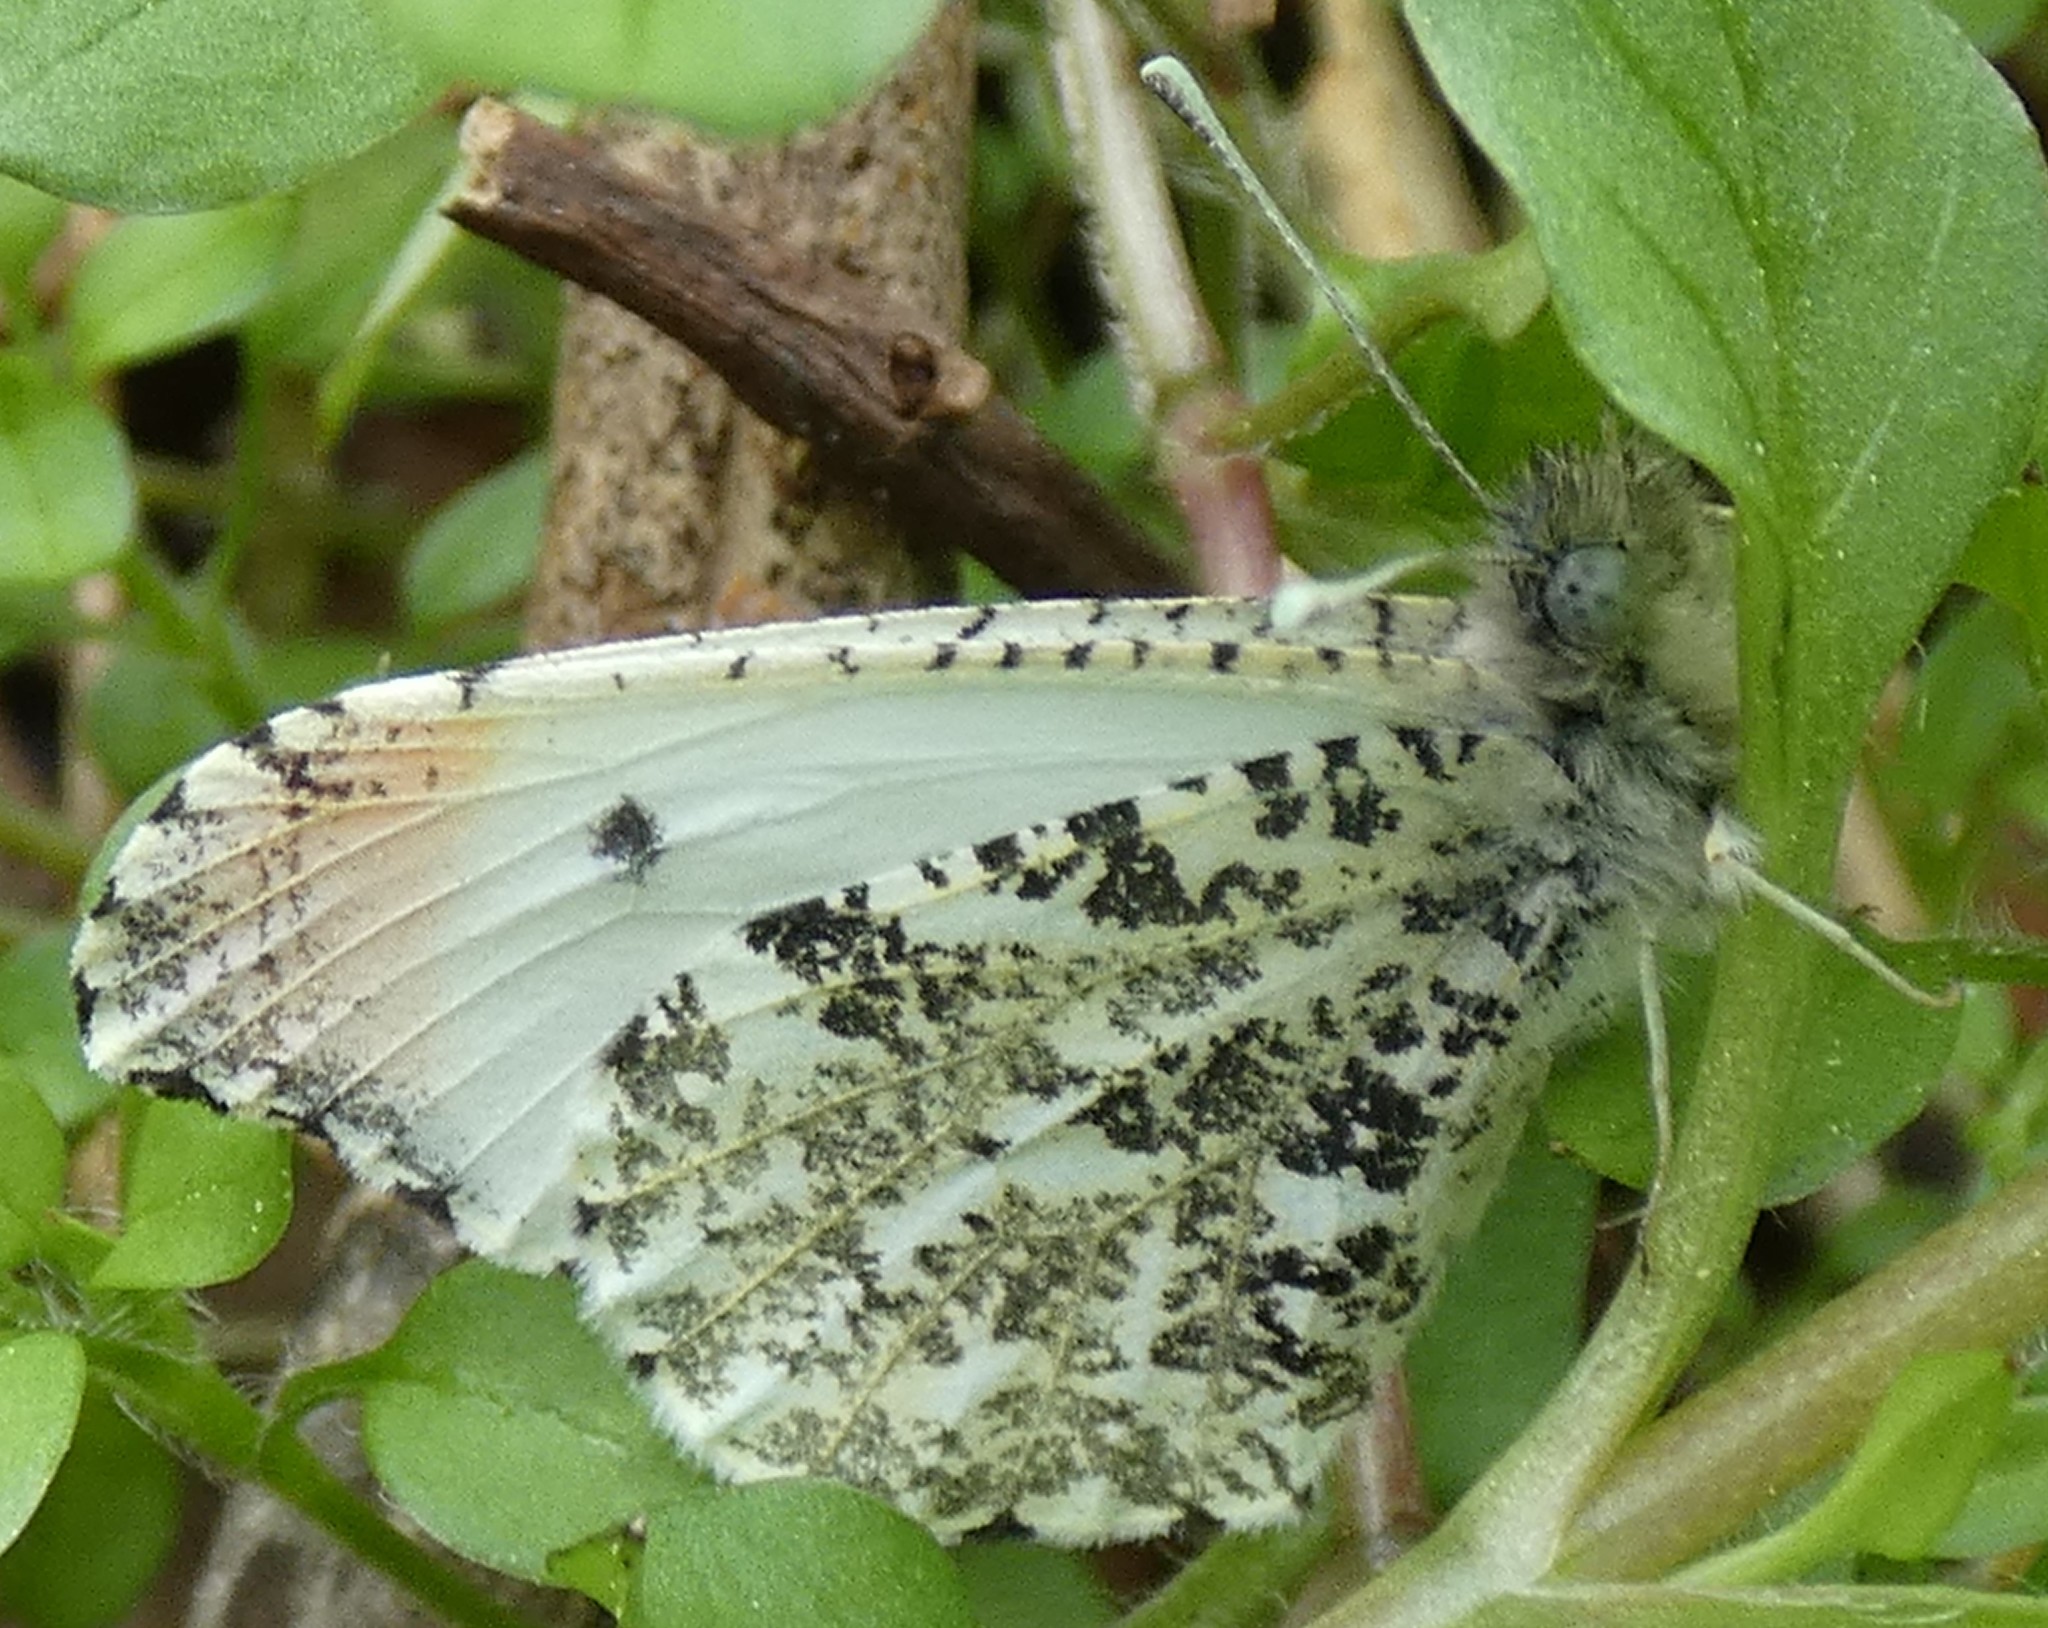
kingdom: Animalia
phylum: Arthropoda
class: Insecta
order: Lepidoptera
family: Pieridae
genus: Anthocharis
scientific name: Anthocharis midea
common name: Falcate orangetip
